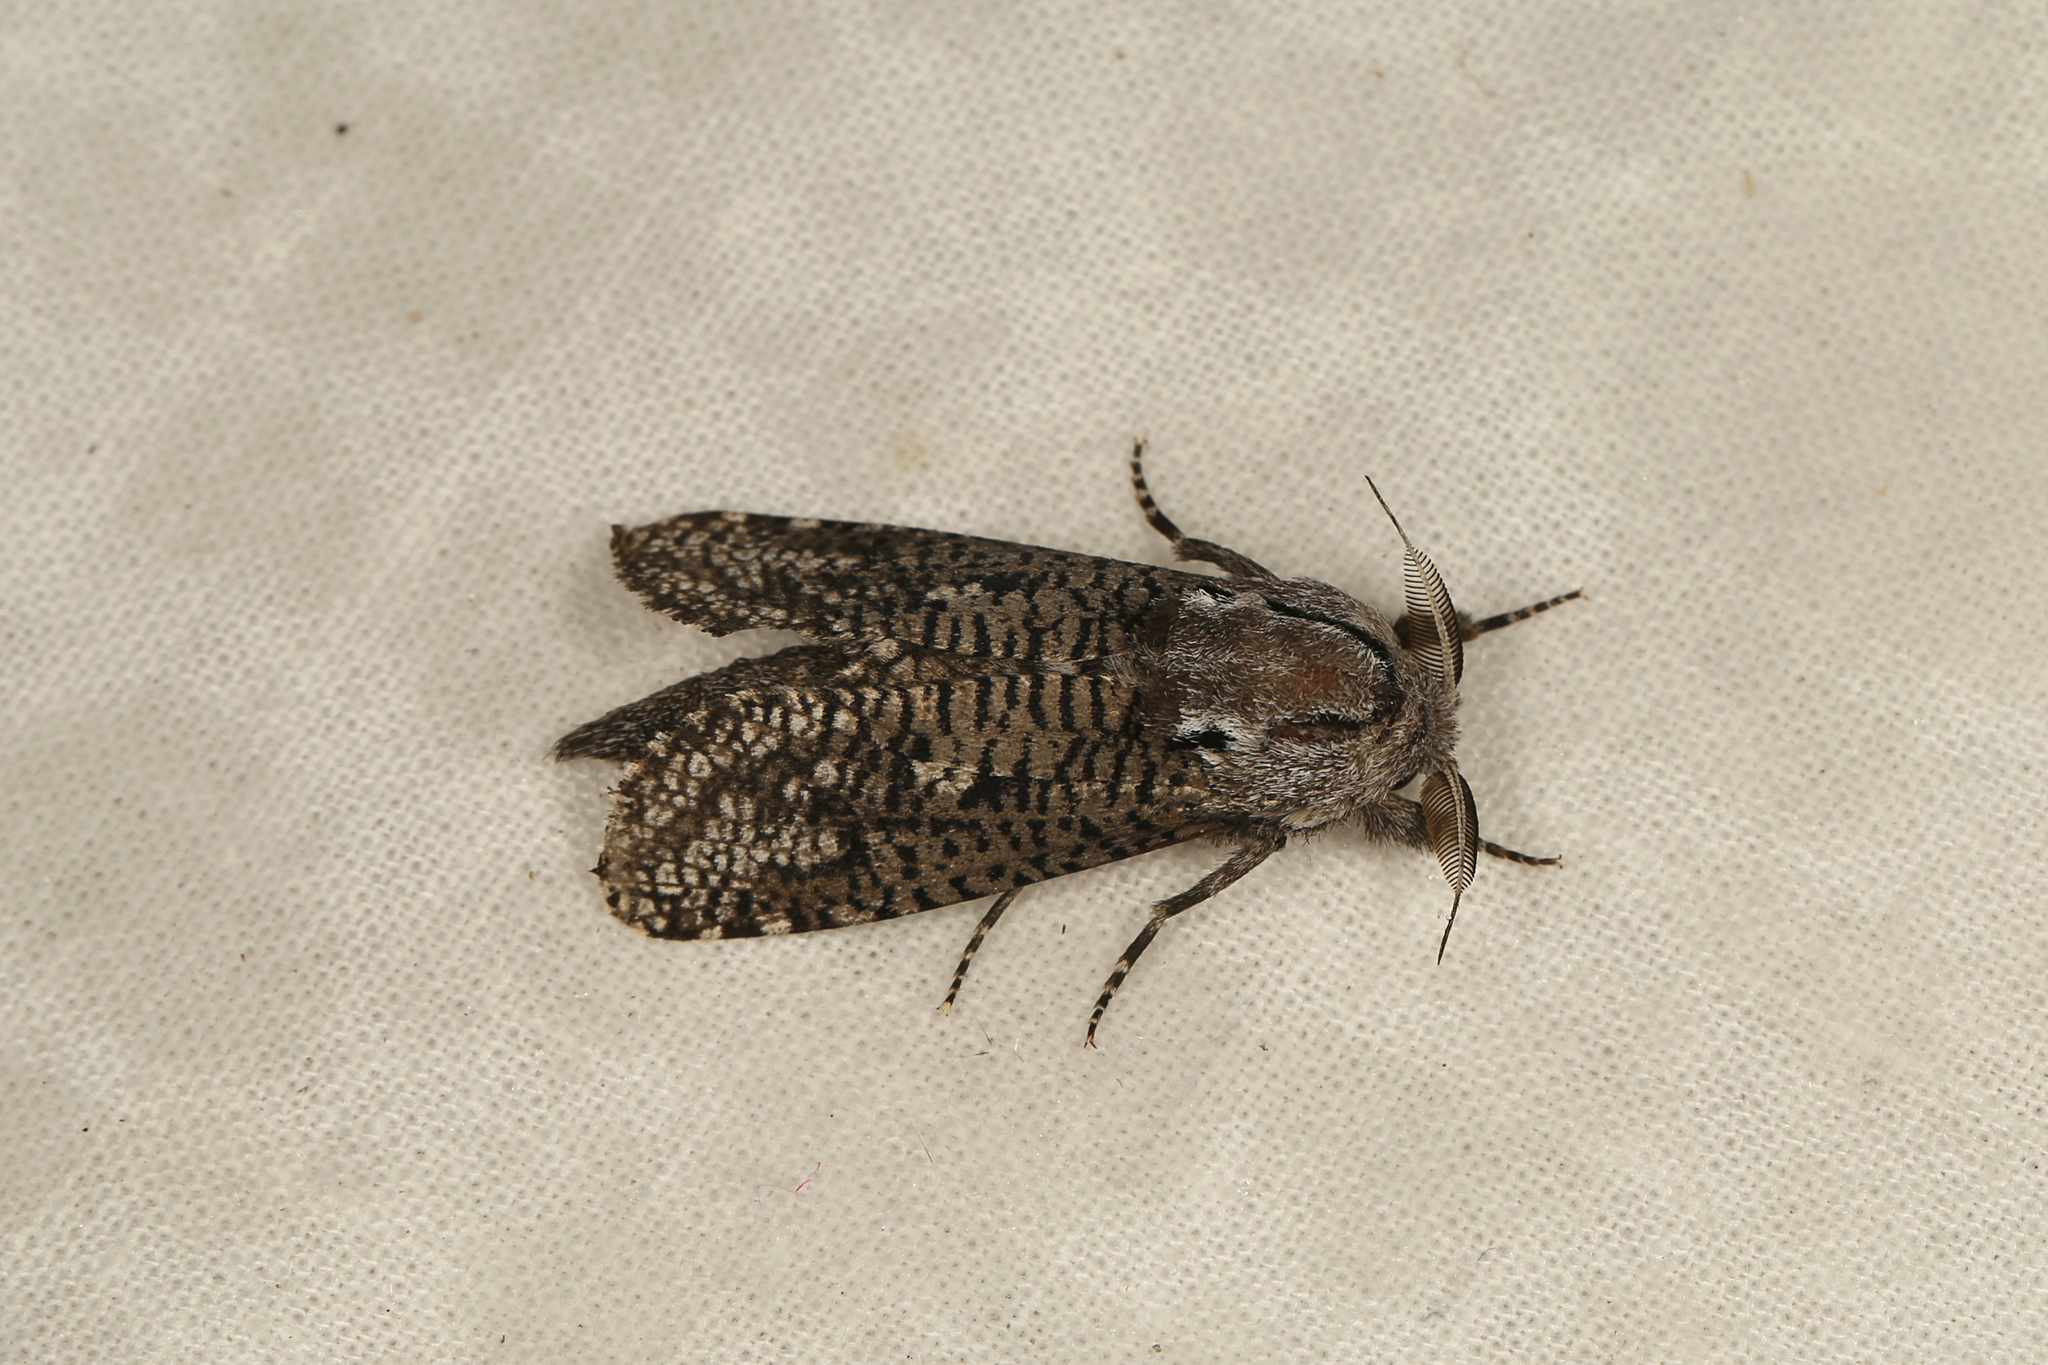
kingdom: Animalia
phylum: Arthropoda
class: Insecta
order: Lepidoptera
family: Cossidae
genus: Endoxyla
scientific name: Endoxyla biarpiti
